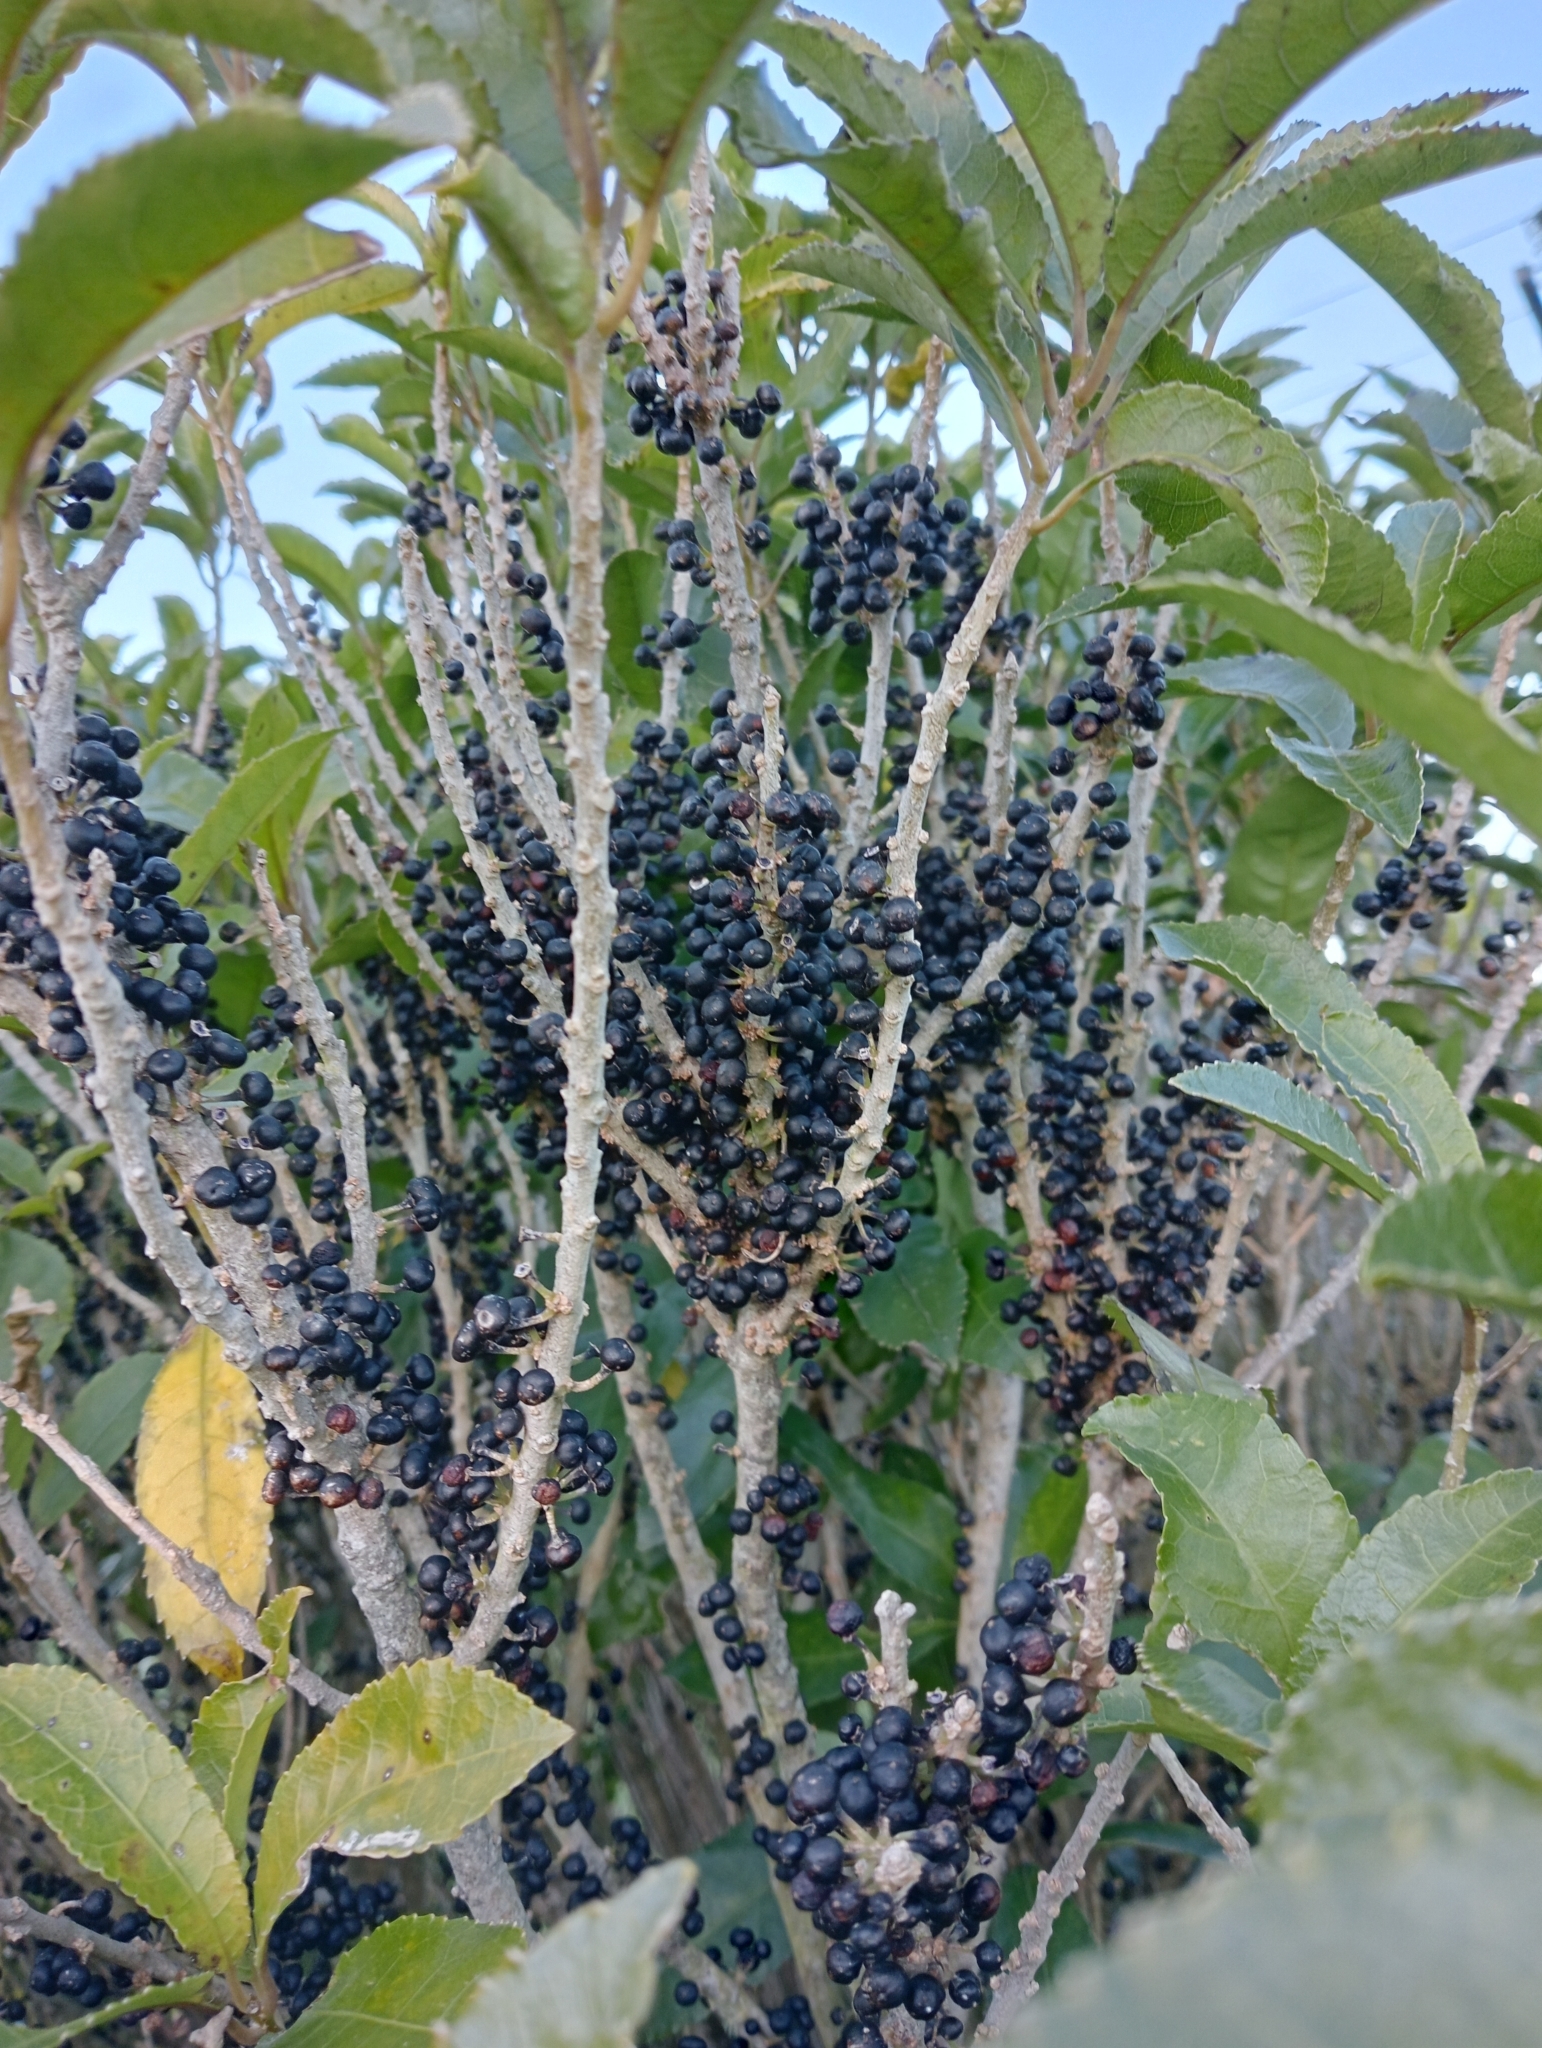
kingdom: Plantae
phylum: Tracheophyta
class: Magnoliopsida
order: Malpighiales
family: Violaceae
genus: Melicytus
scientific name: Melicytus ramiflorus
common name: Mahoe
